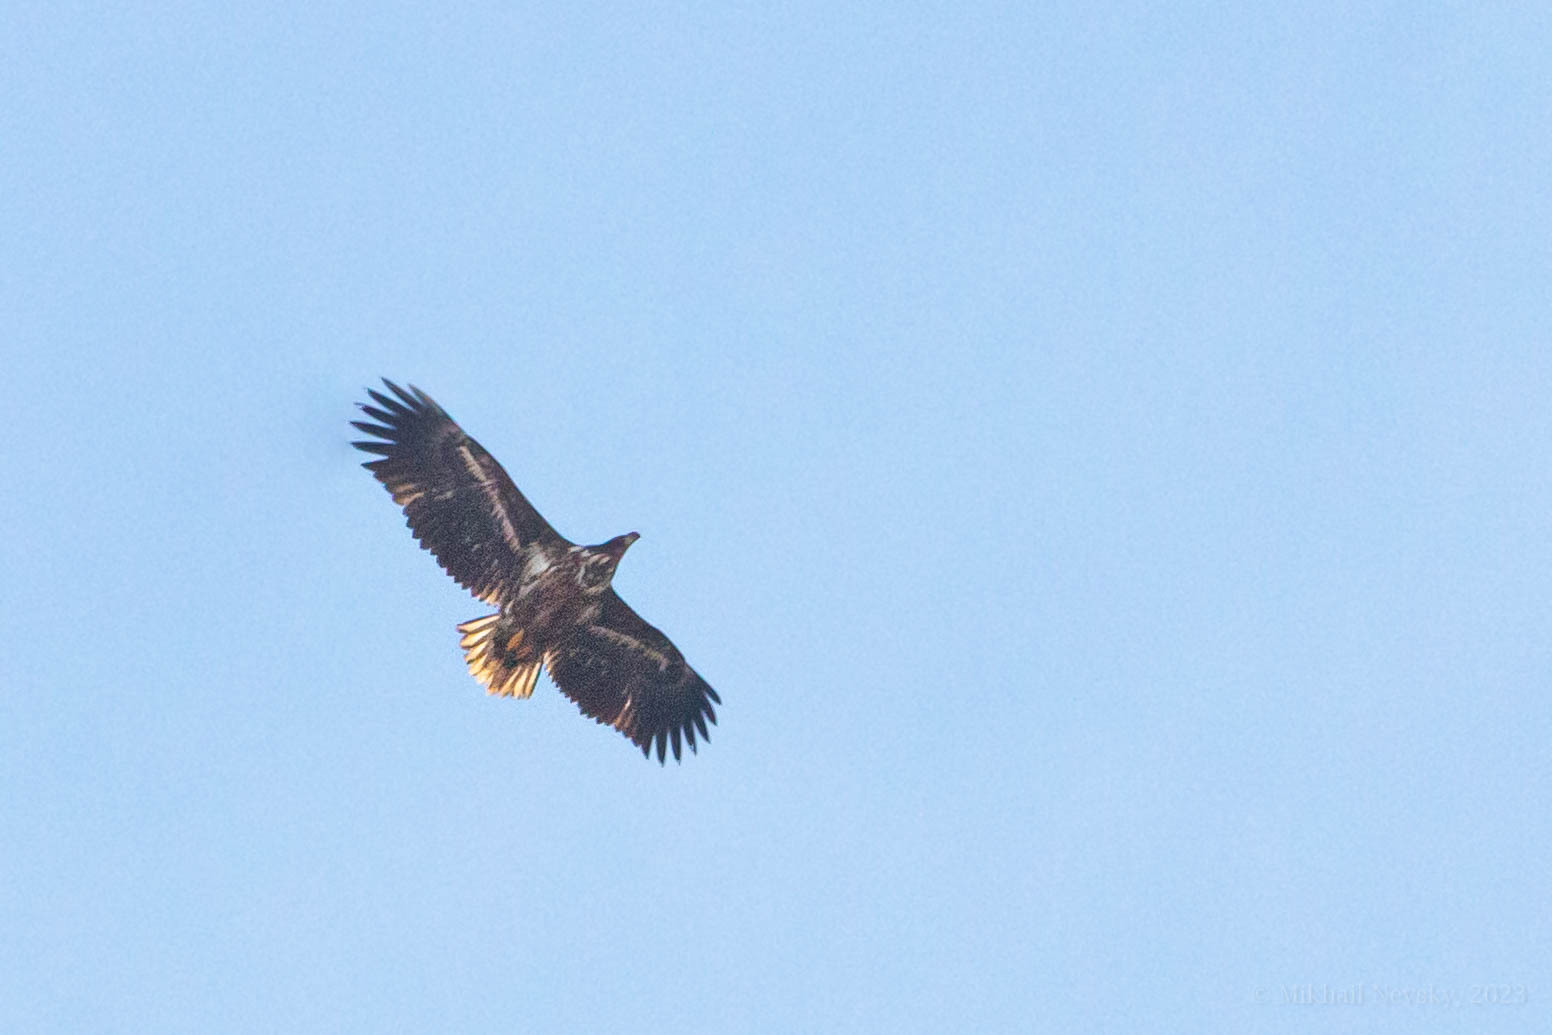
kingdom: Animalia
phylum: Chordata
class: Aves
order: Accipitriformes
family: Accipitridae
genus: Haliaeetus
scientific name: Haliaeetus albicilla
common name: White-tailed eagle
